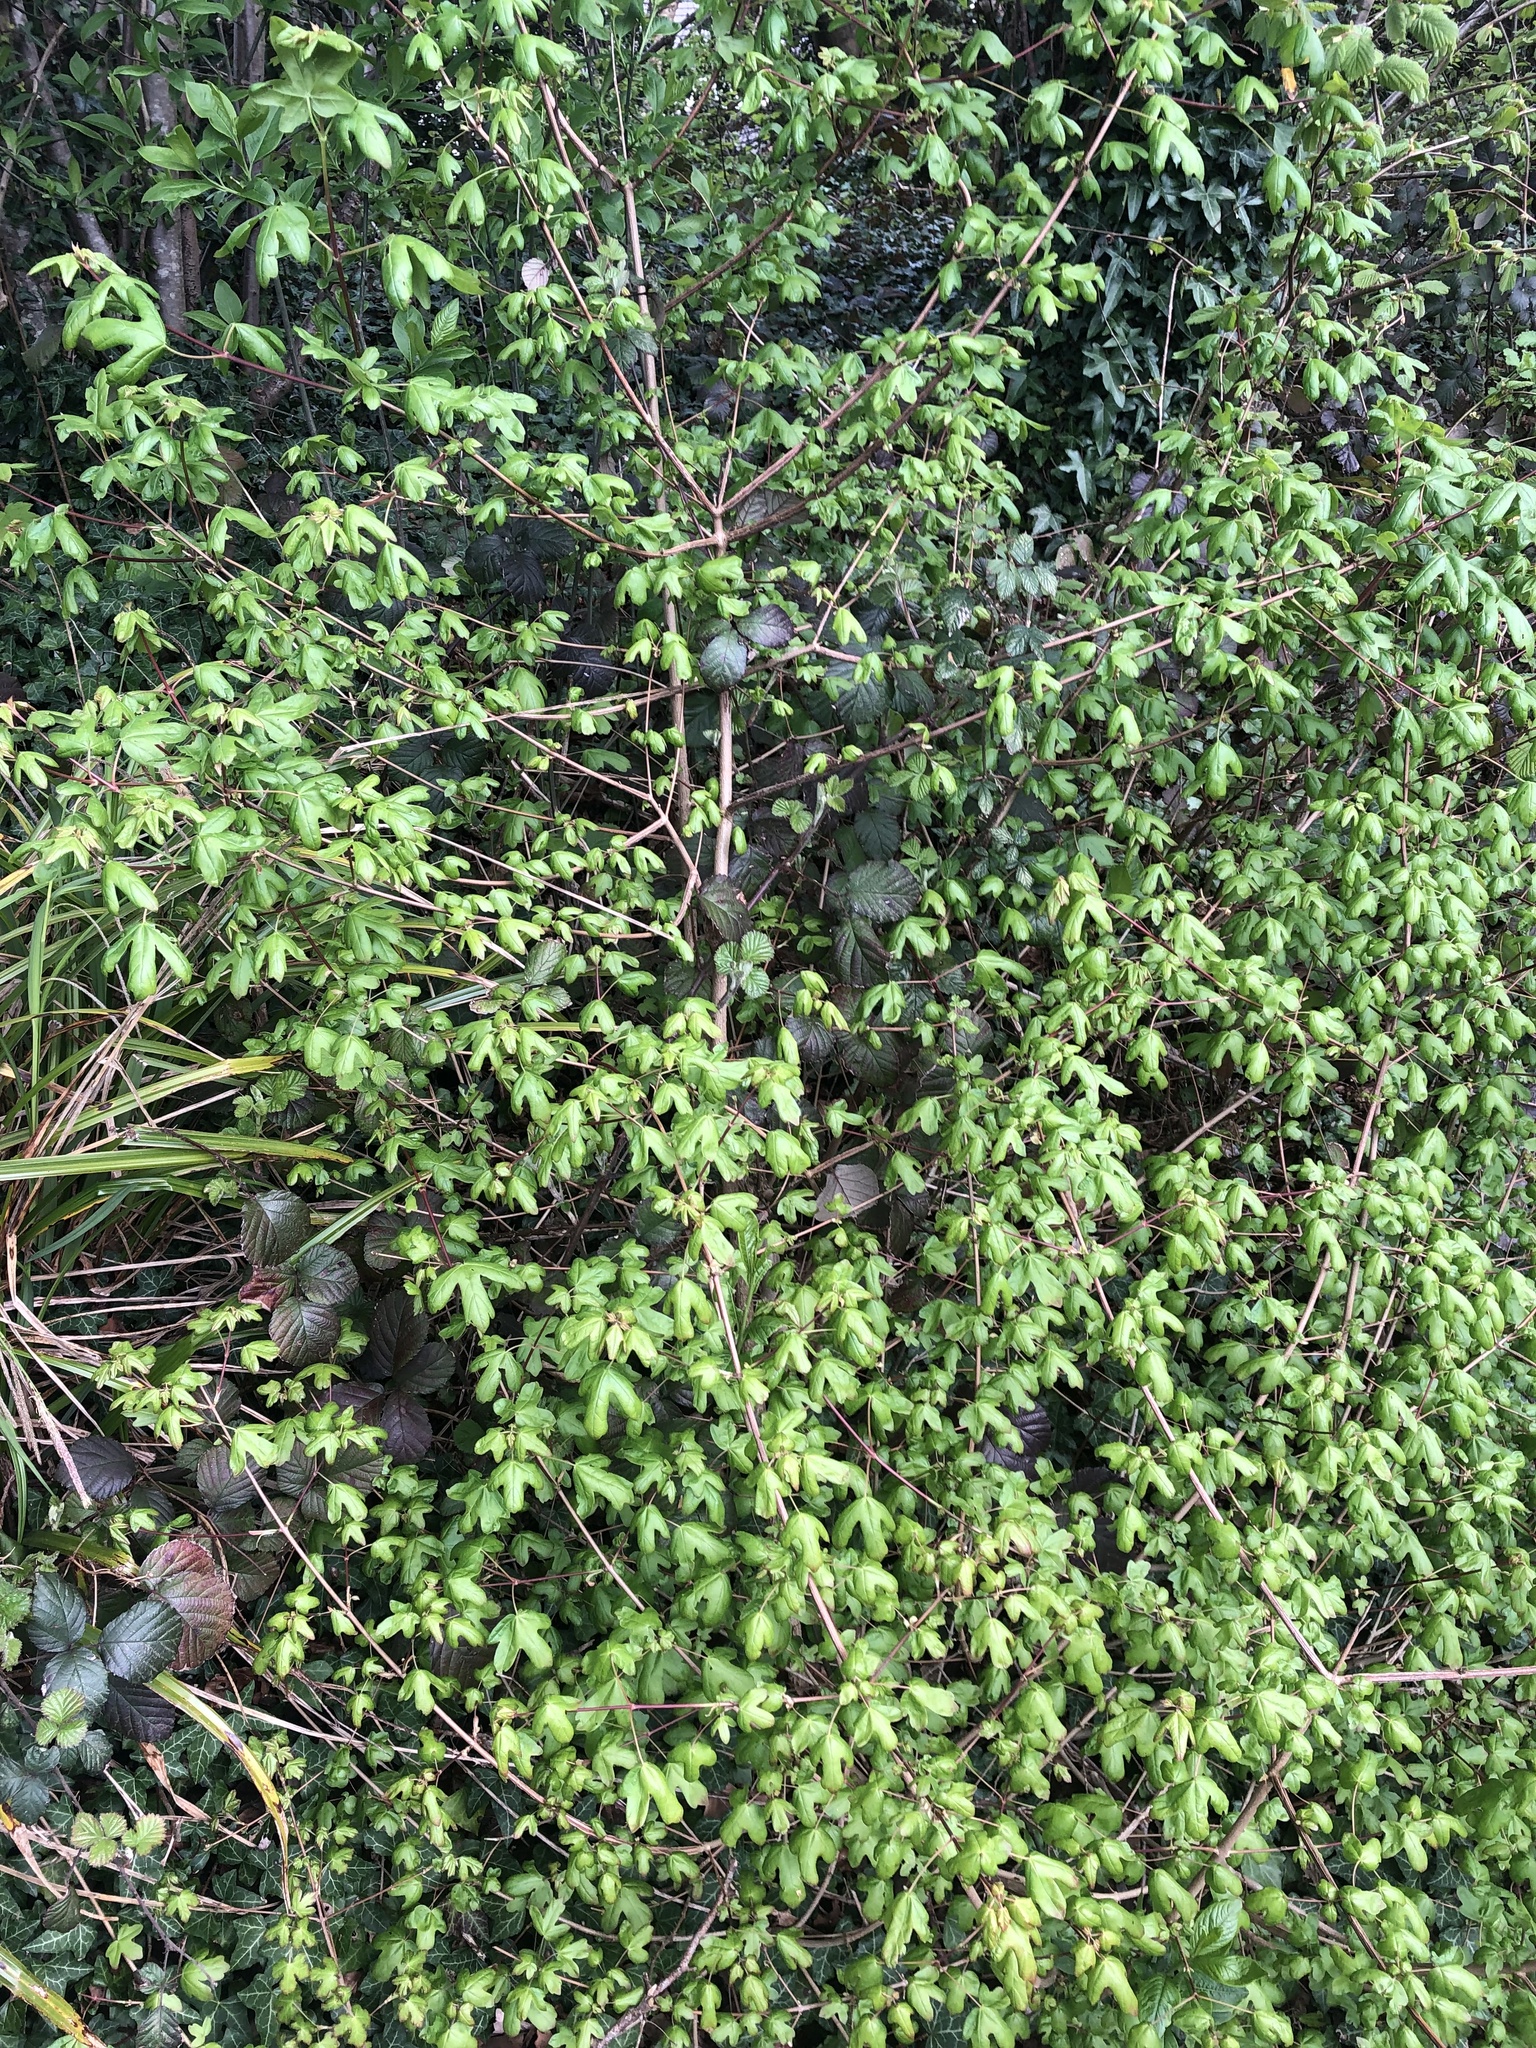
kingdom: Plantae
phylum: Tracheophyta
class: Magnoliopsida
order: Sapindales
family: Sapindaceae
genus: Acer
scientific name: Acer campestre
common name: Field maple
